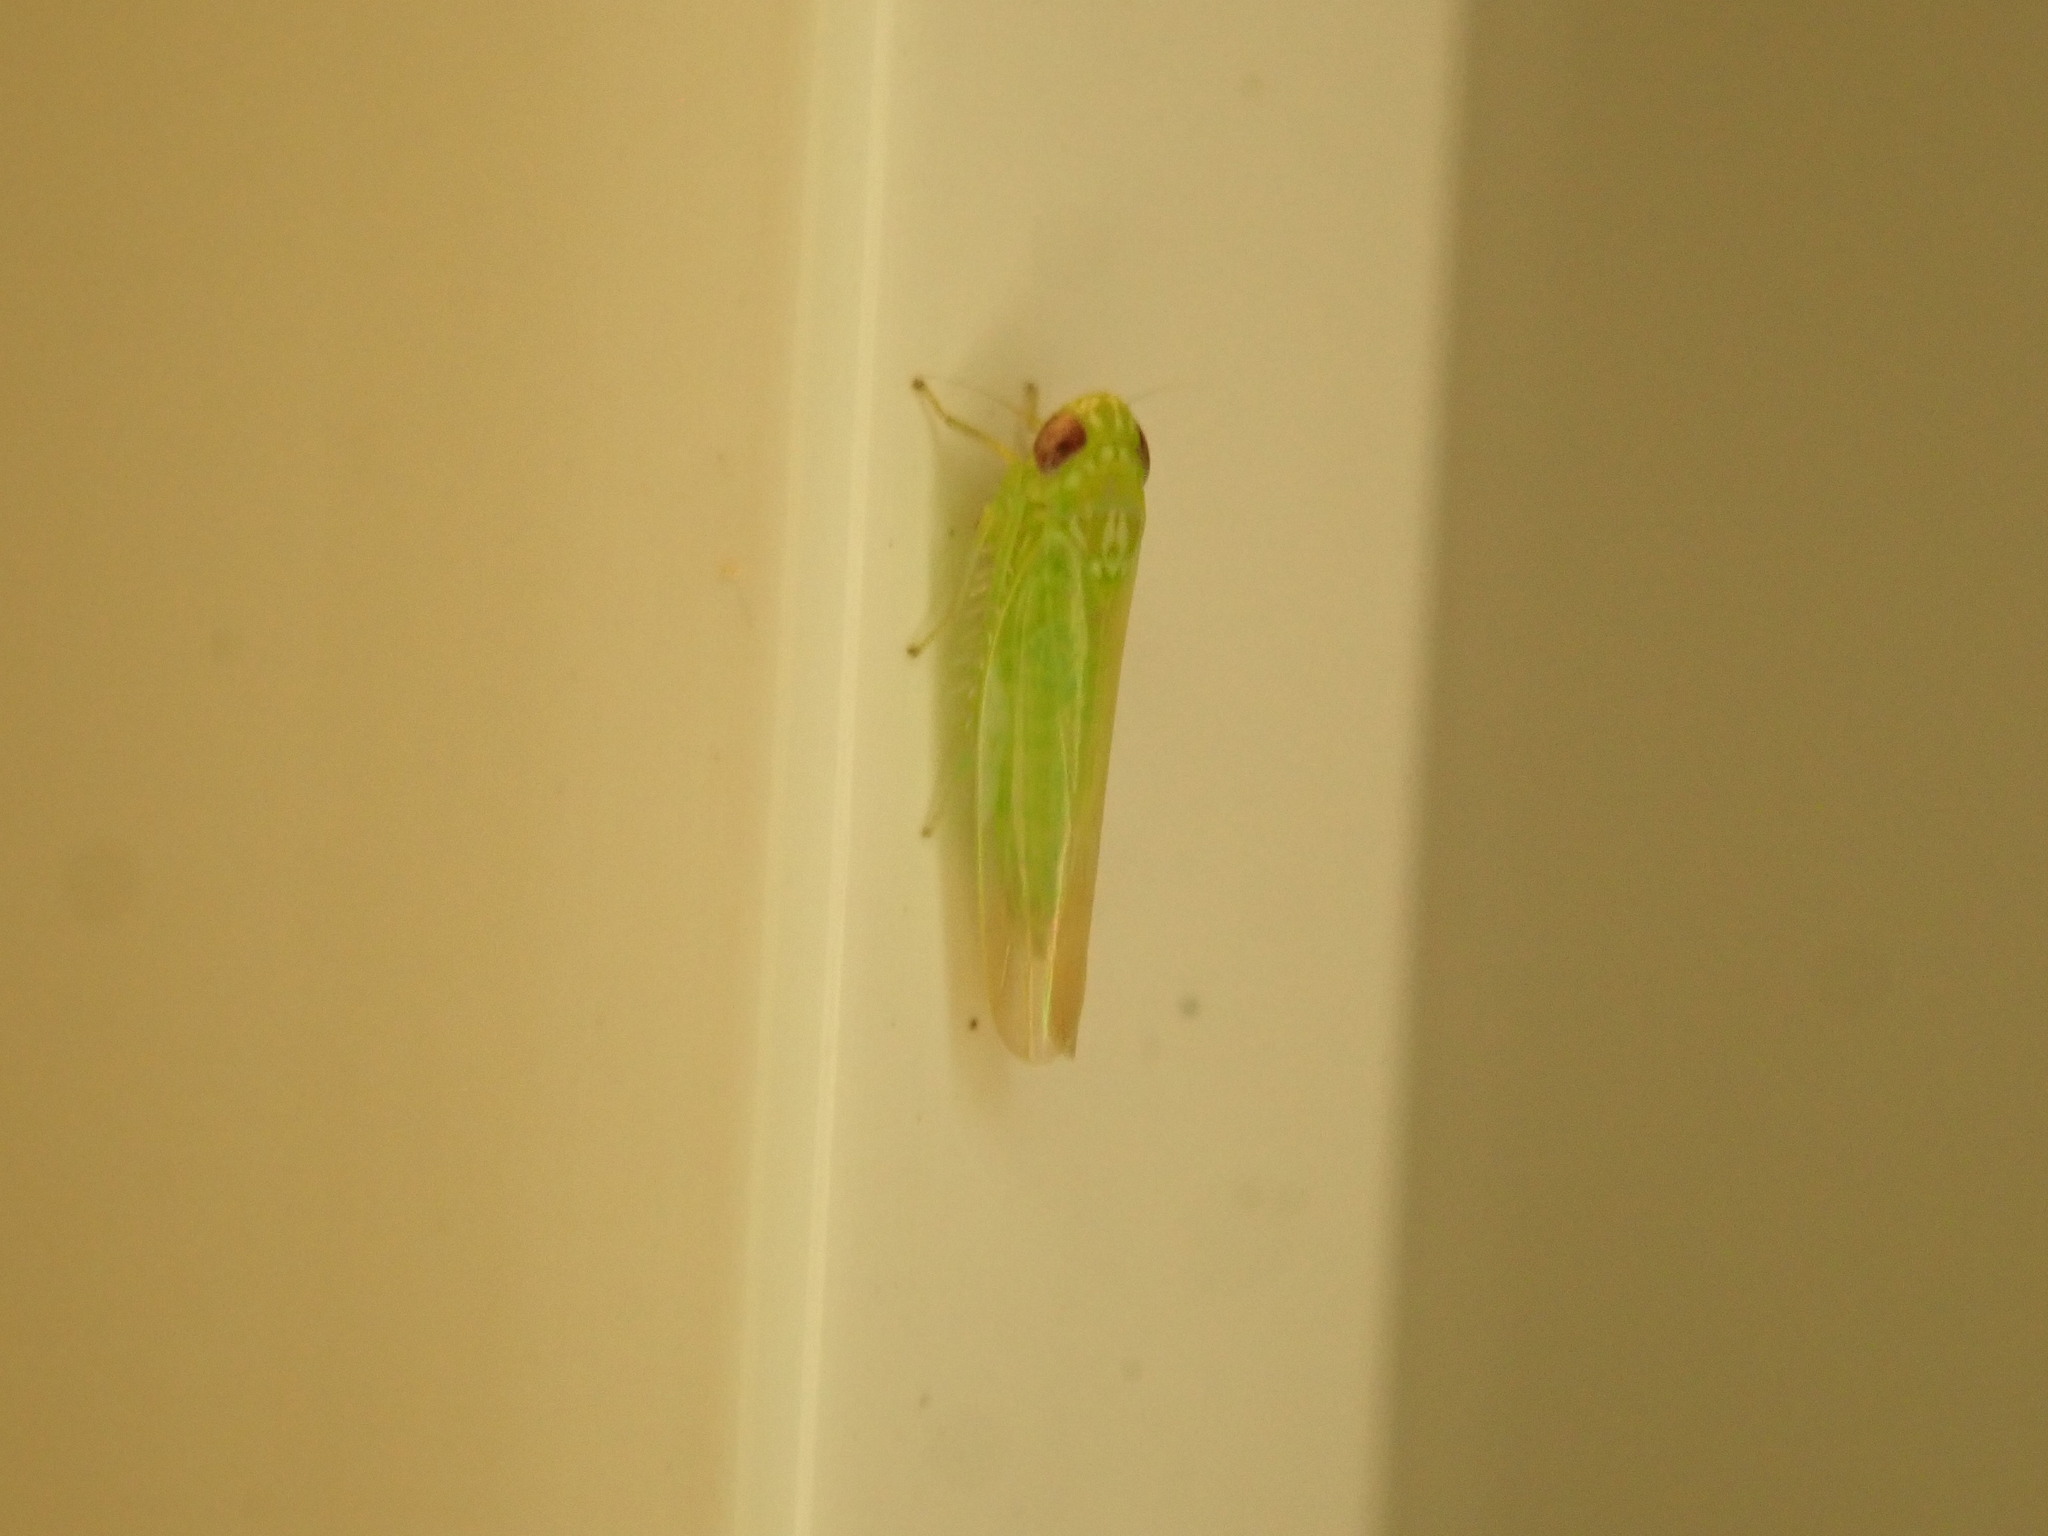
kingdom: Animalia
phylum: Arthropoda
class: Insecta
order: Hemiptera
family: Cicadellidae
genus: Empoasca
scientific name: Empoasca fabae
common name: Potato leafhopper
